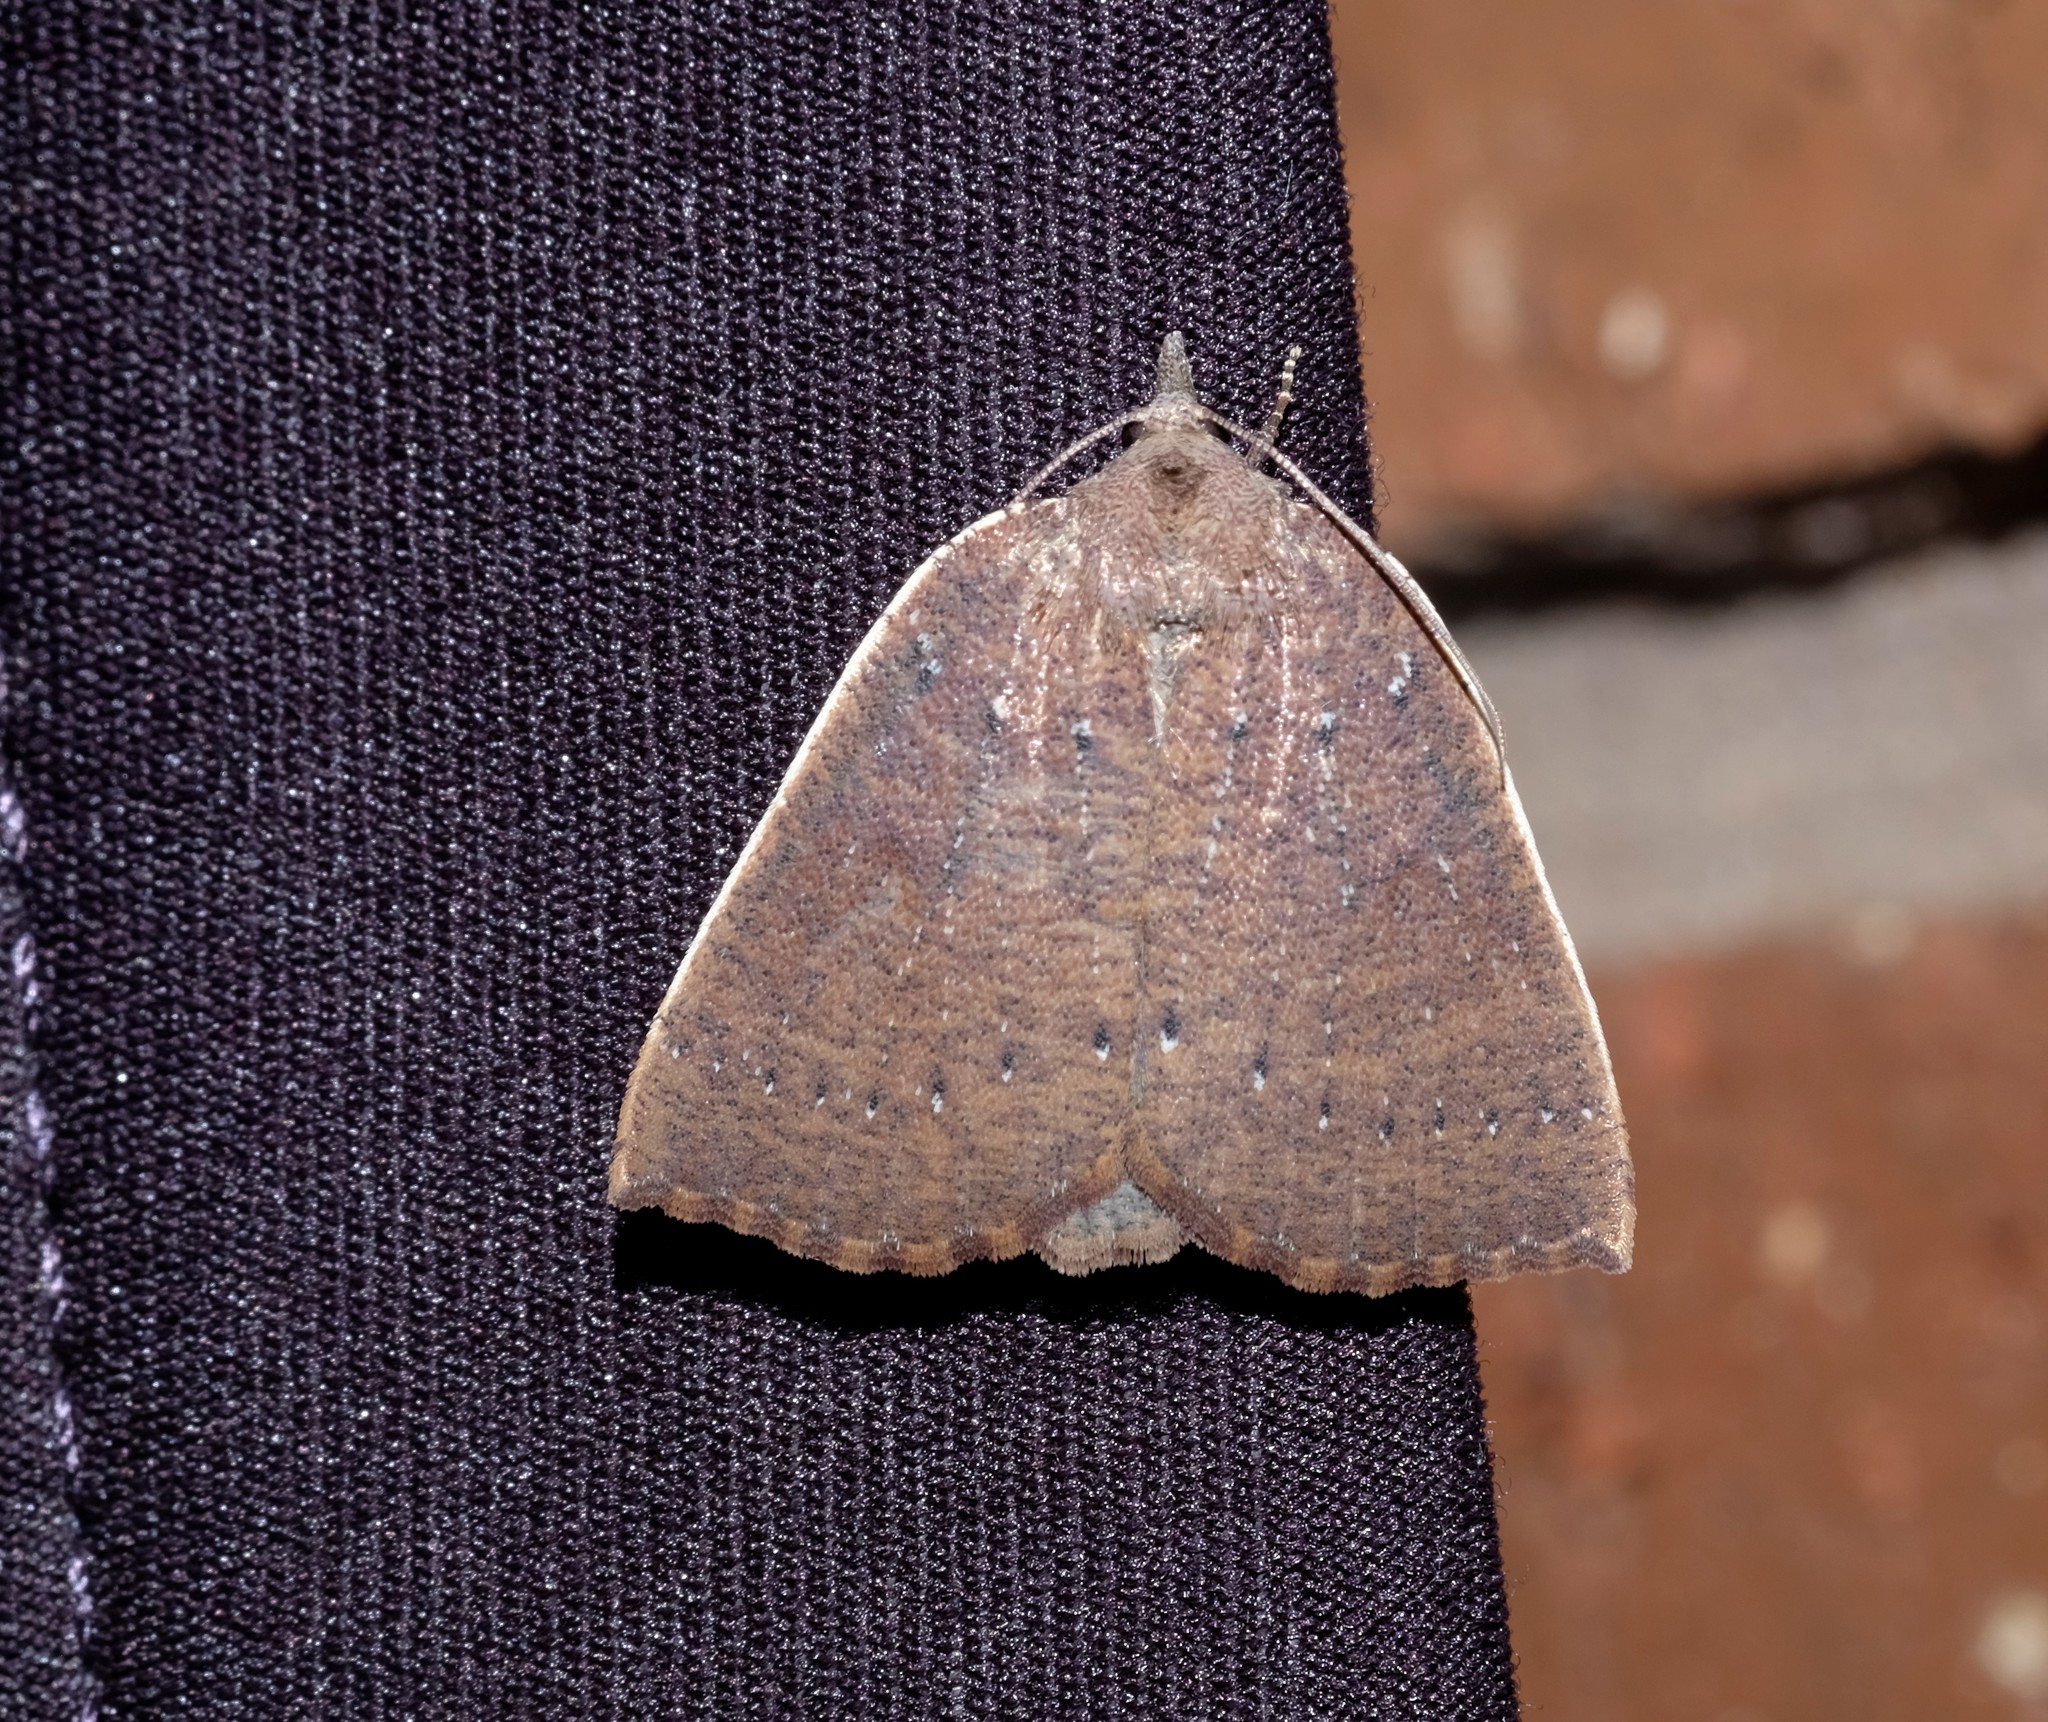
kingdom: Animalia
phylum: Arthropoda
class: Insecta
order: Lepidoptera
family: Geometridae
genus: Authaemon
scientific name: Authaemon stenonipha
